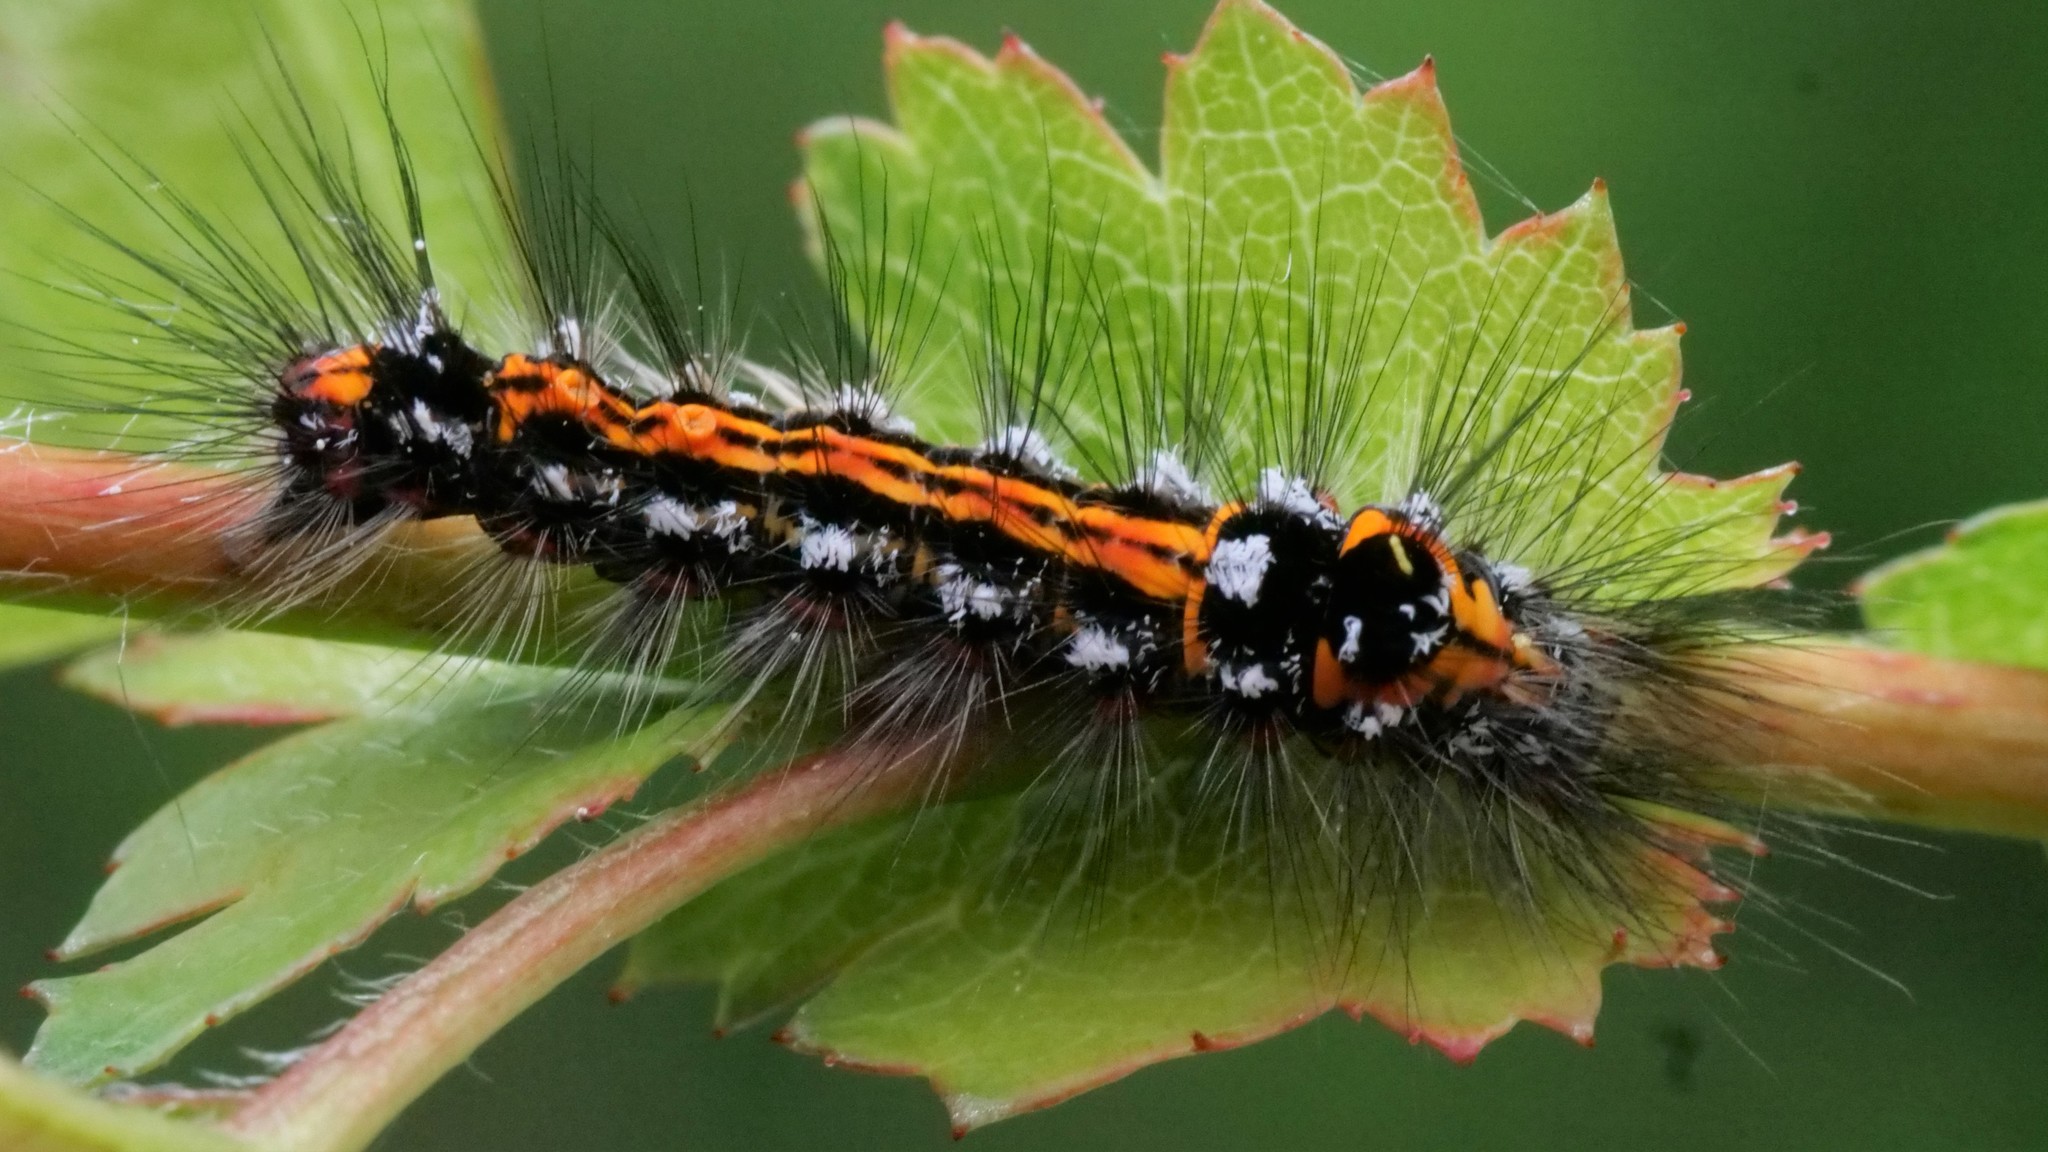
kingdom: Animalia
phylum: Arthropoda
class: Insecta
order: Lepidoptera
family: Erebidae
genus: Sphrageidus
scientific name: Sphrageidus similis
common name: Yellow-tail
